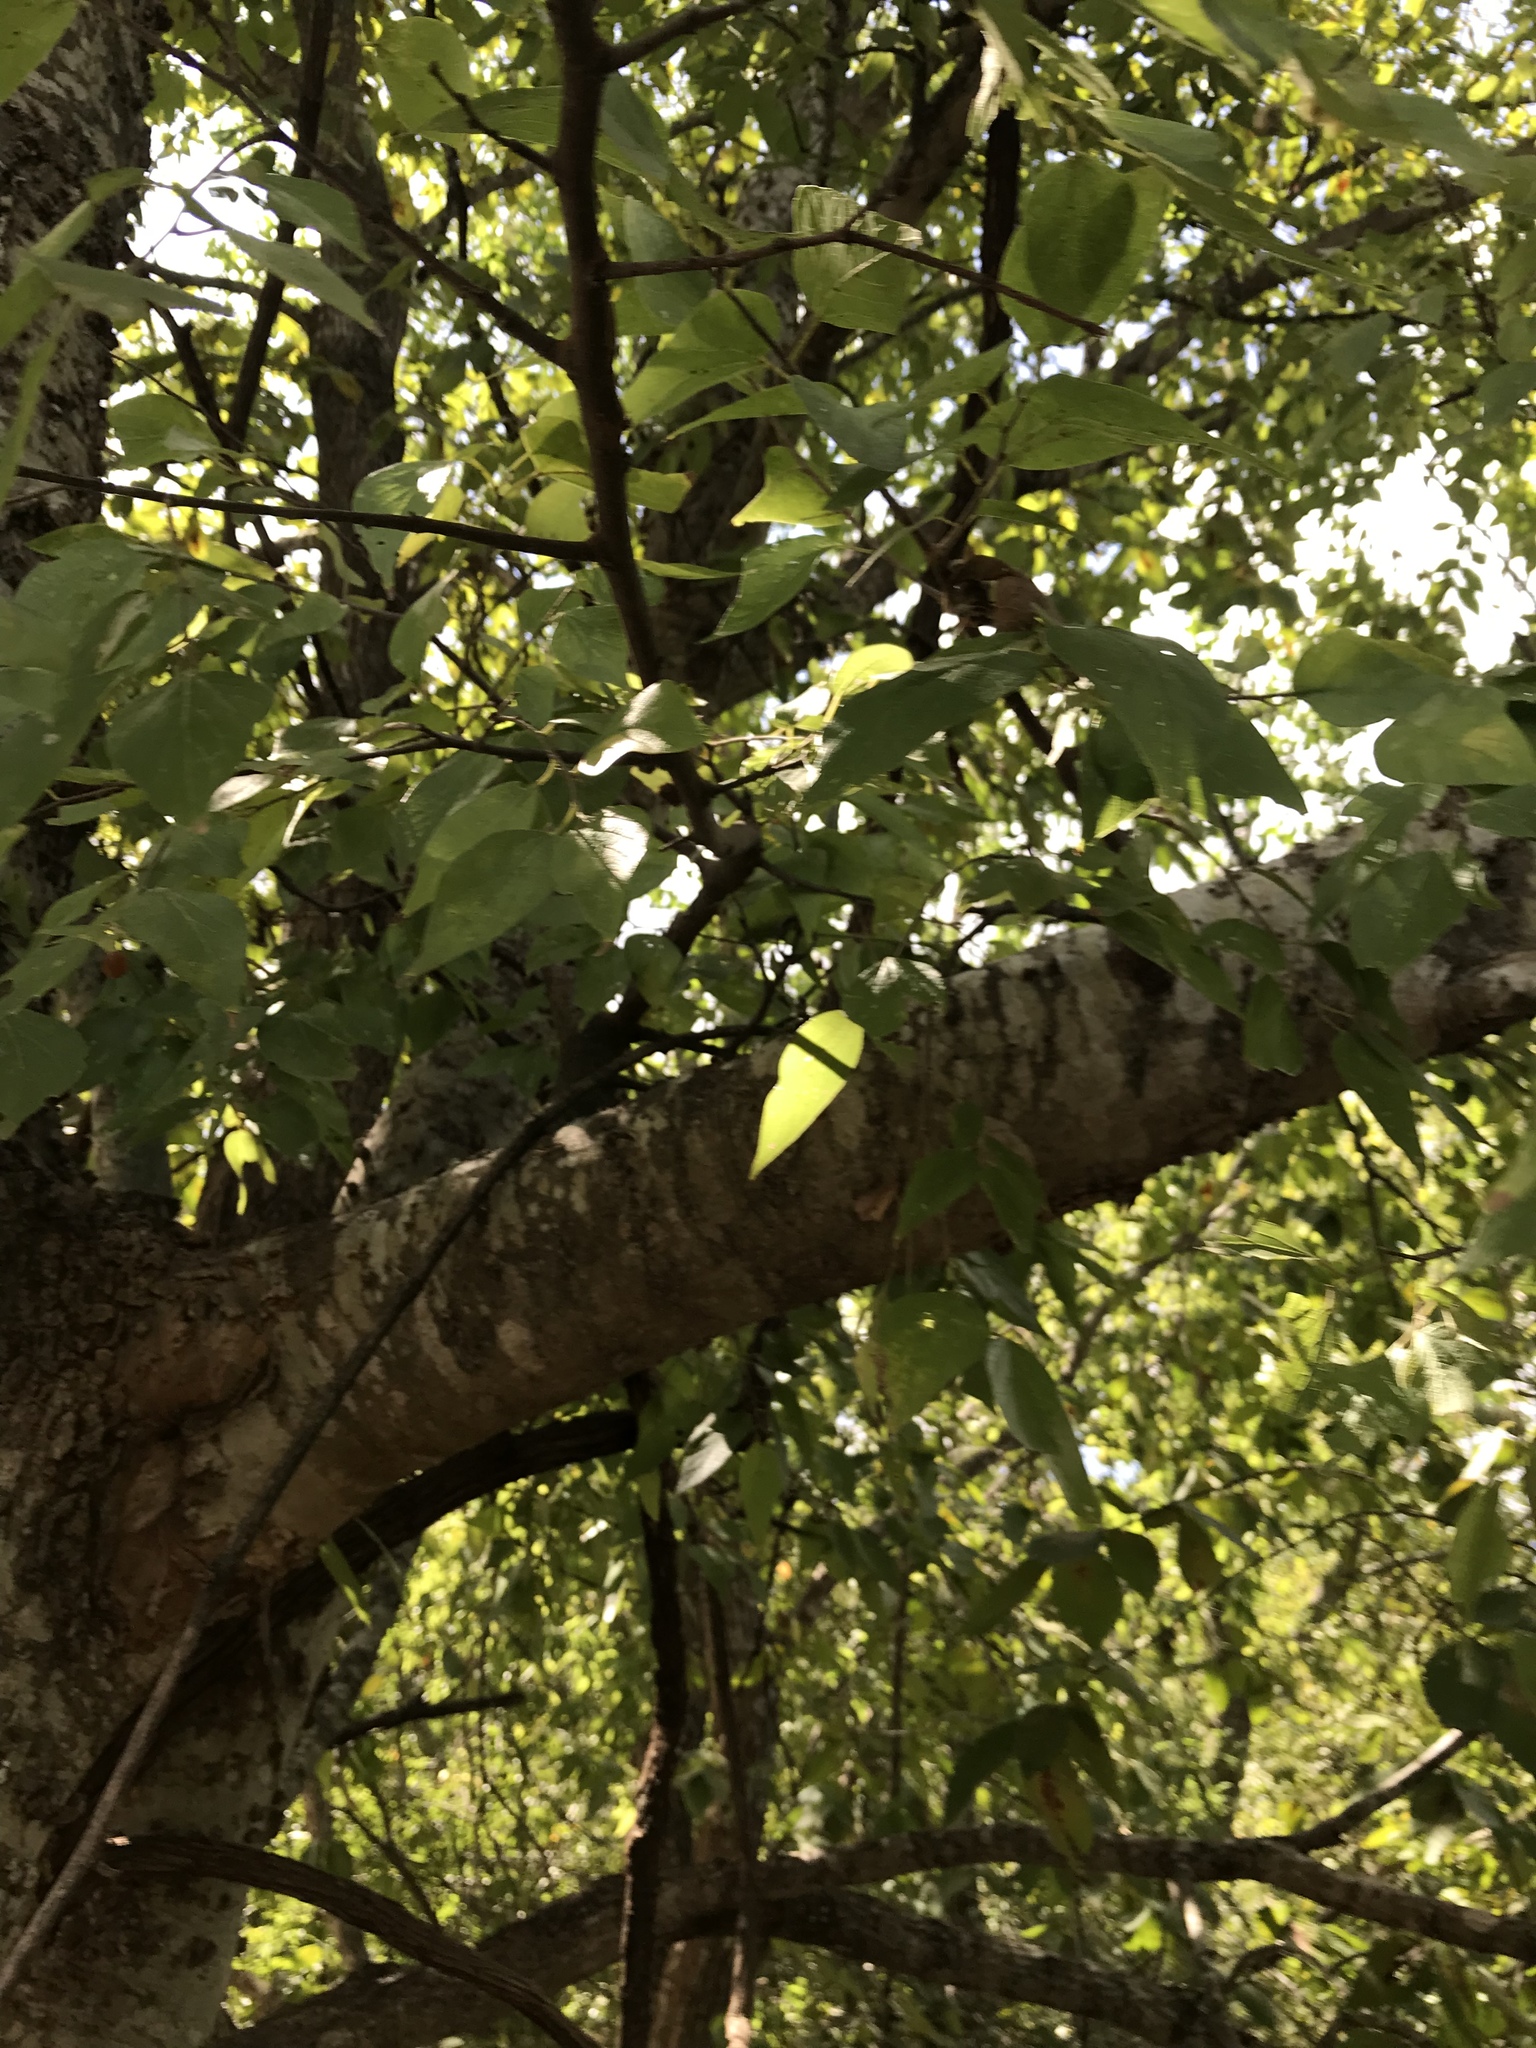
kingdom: Plantae
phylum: Tracheophyta
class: Magnoliopsida
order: Rosales
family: Cannabaceae
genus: Celtis
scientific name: Celtis laevigata
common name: Sugarberry
